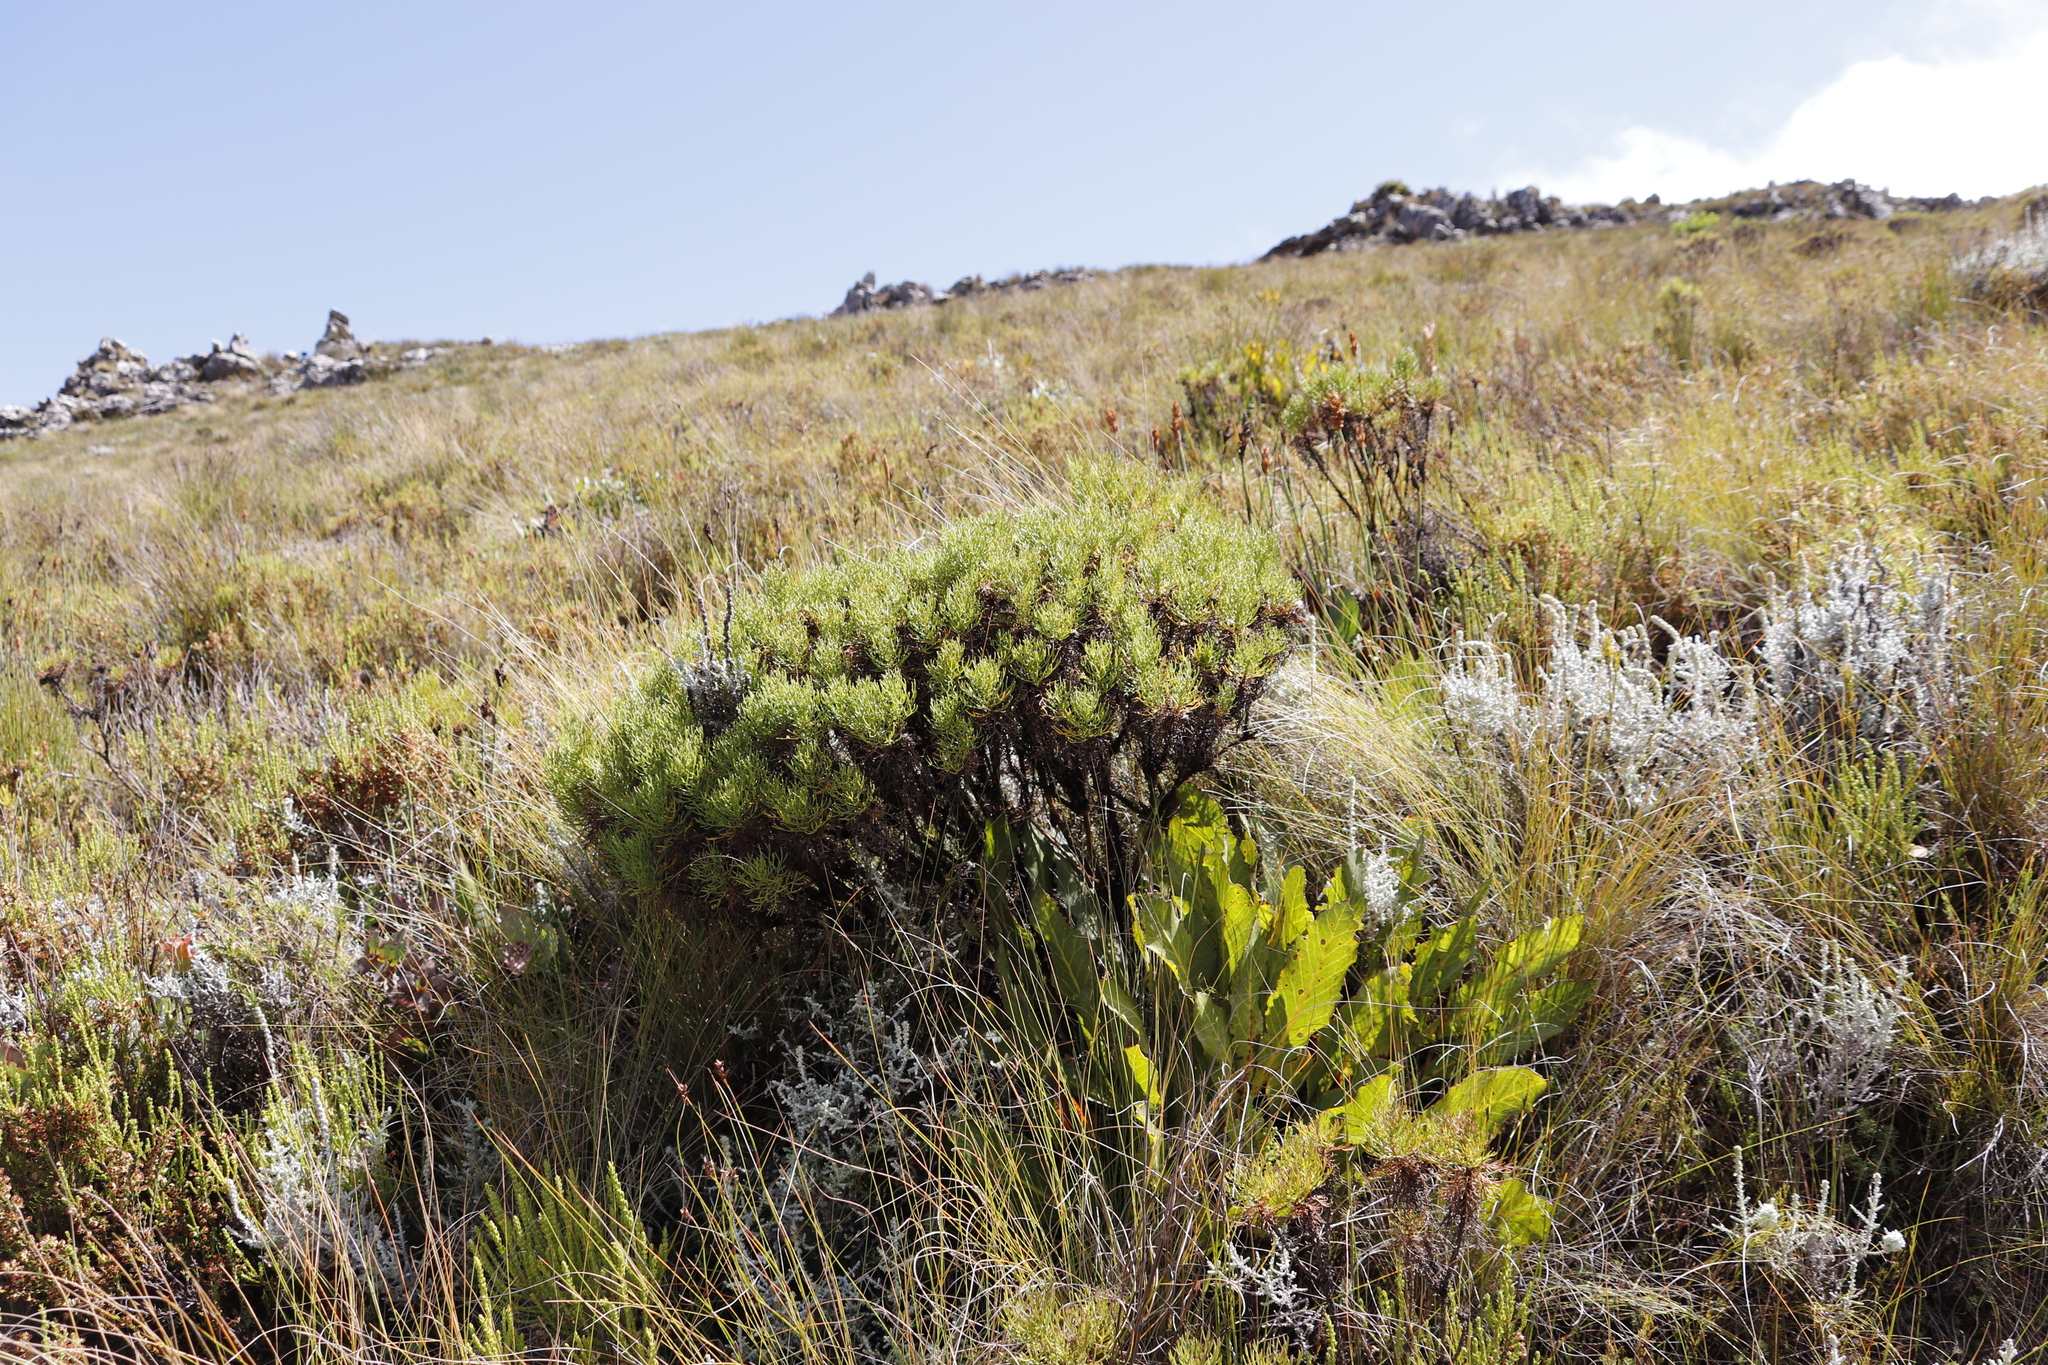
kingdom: Plantae
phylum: Tracheophyta
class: Magnoliopsida
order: Proteales
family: Proteaceae
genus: Protea
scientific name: Protea scolopendriifolia
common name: Harts-tongue-fern sugarbush
